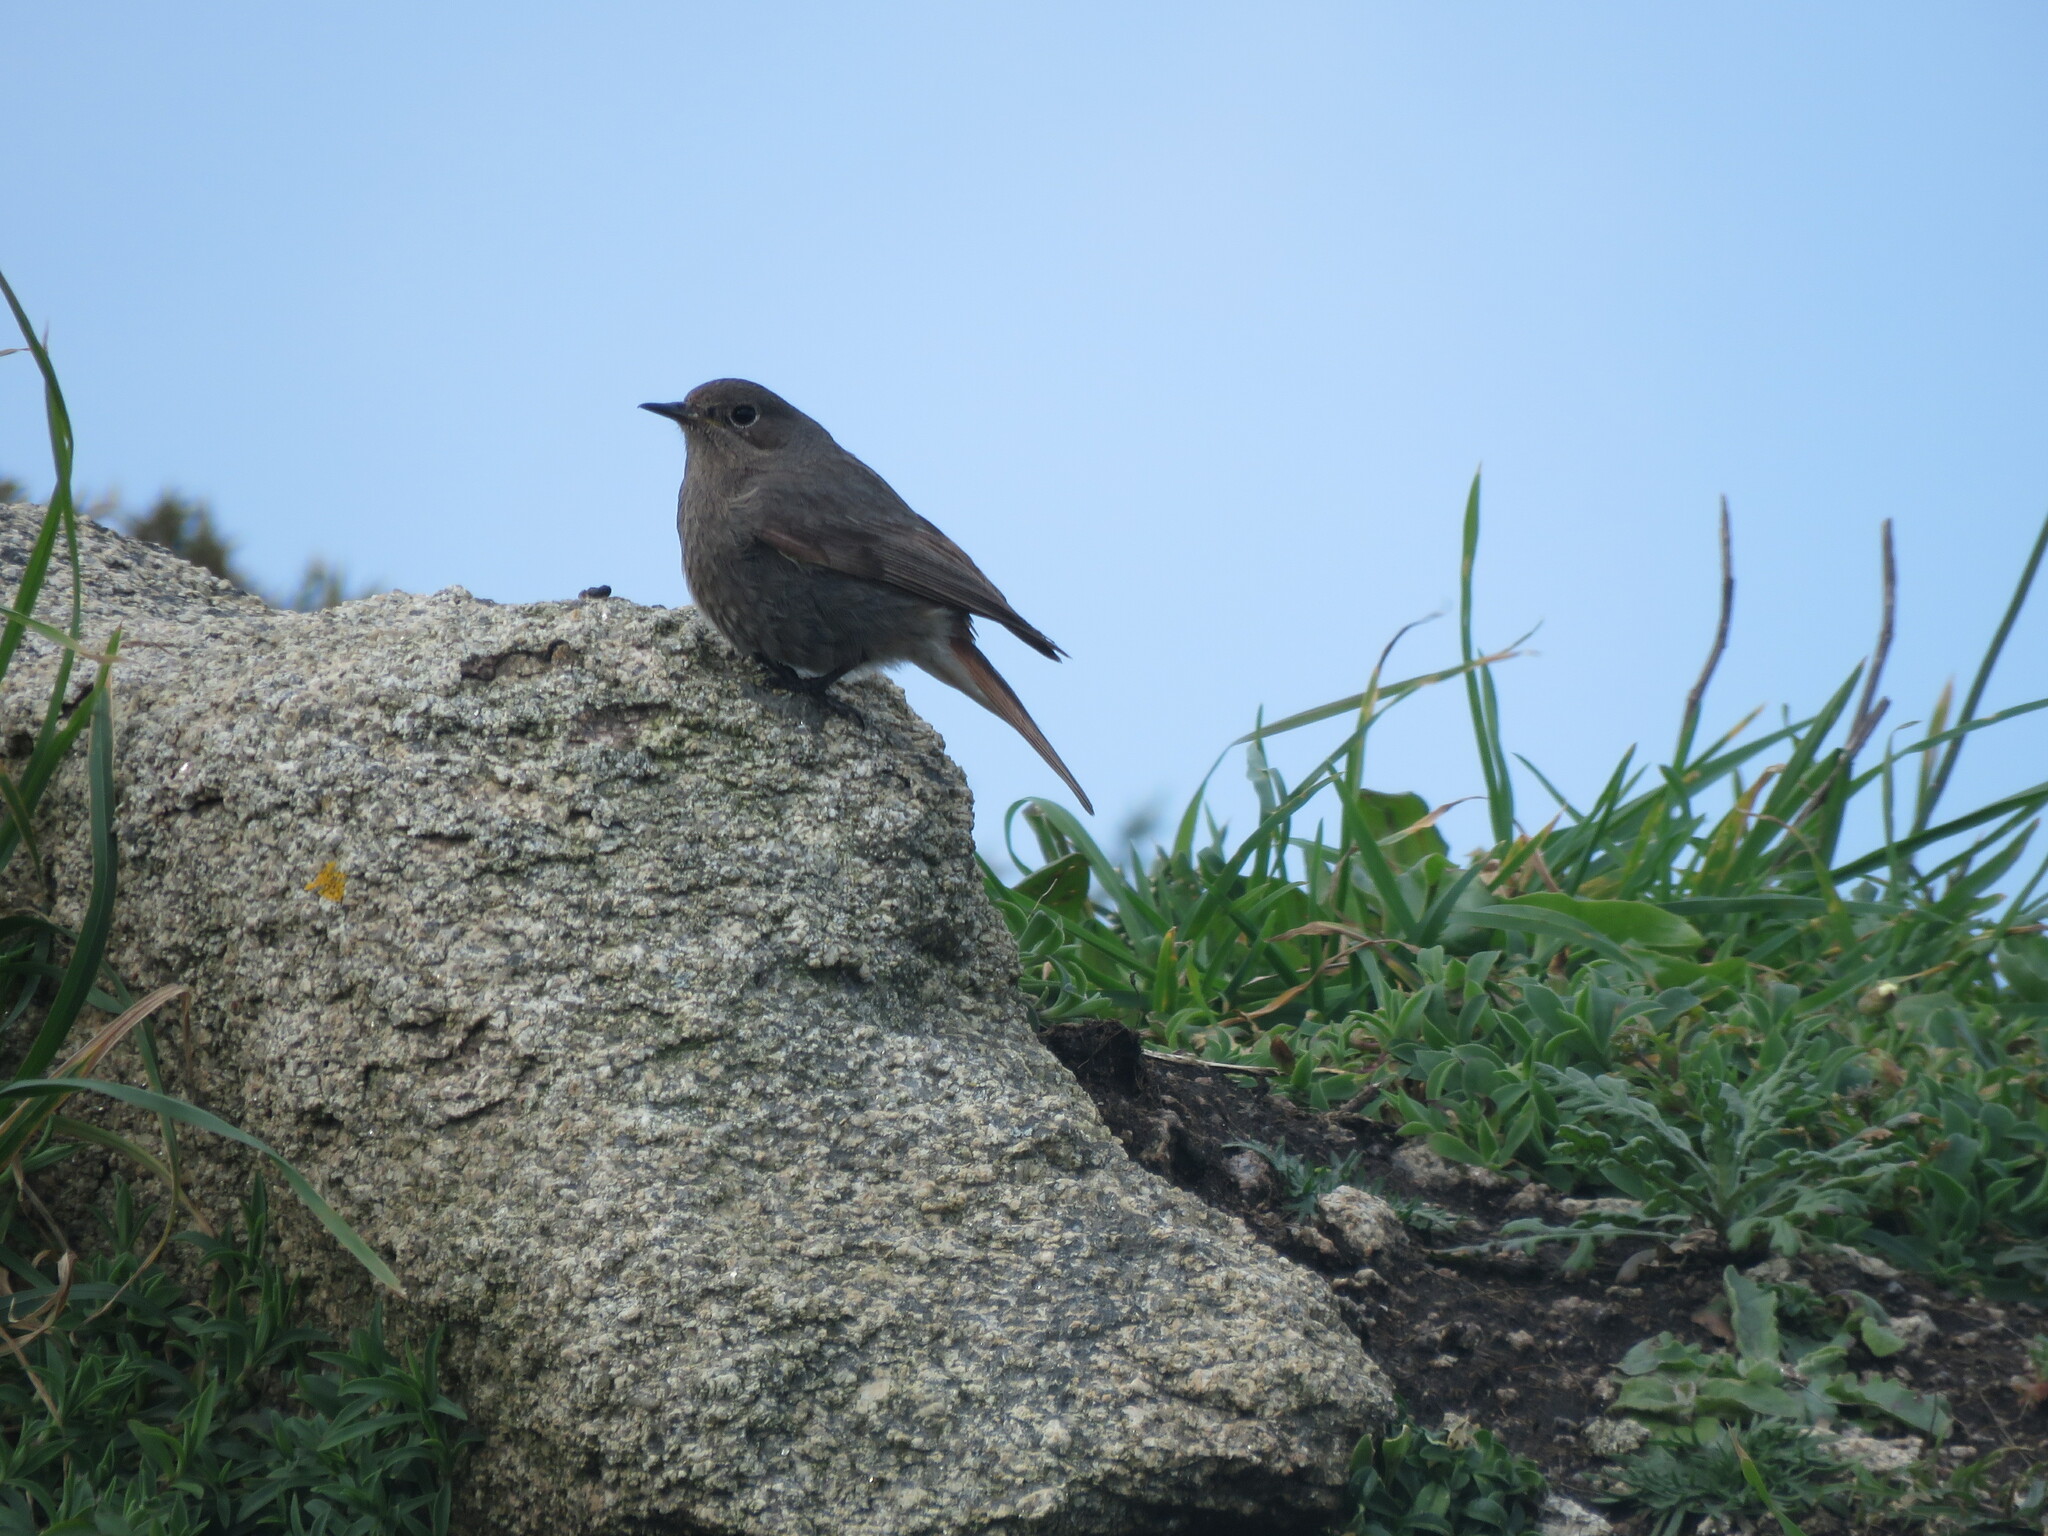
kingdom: Animalia
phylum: Chordata
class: Aves
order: Passeriformes
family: Muscicapidae
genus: Phoenicurus
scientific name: Phoenicurus ochruros
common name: Black redstart
